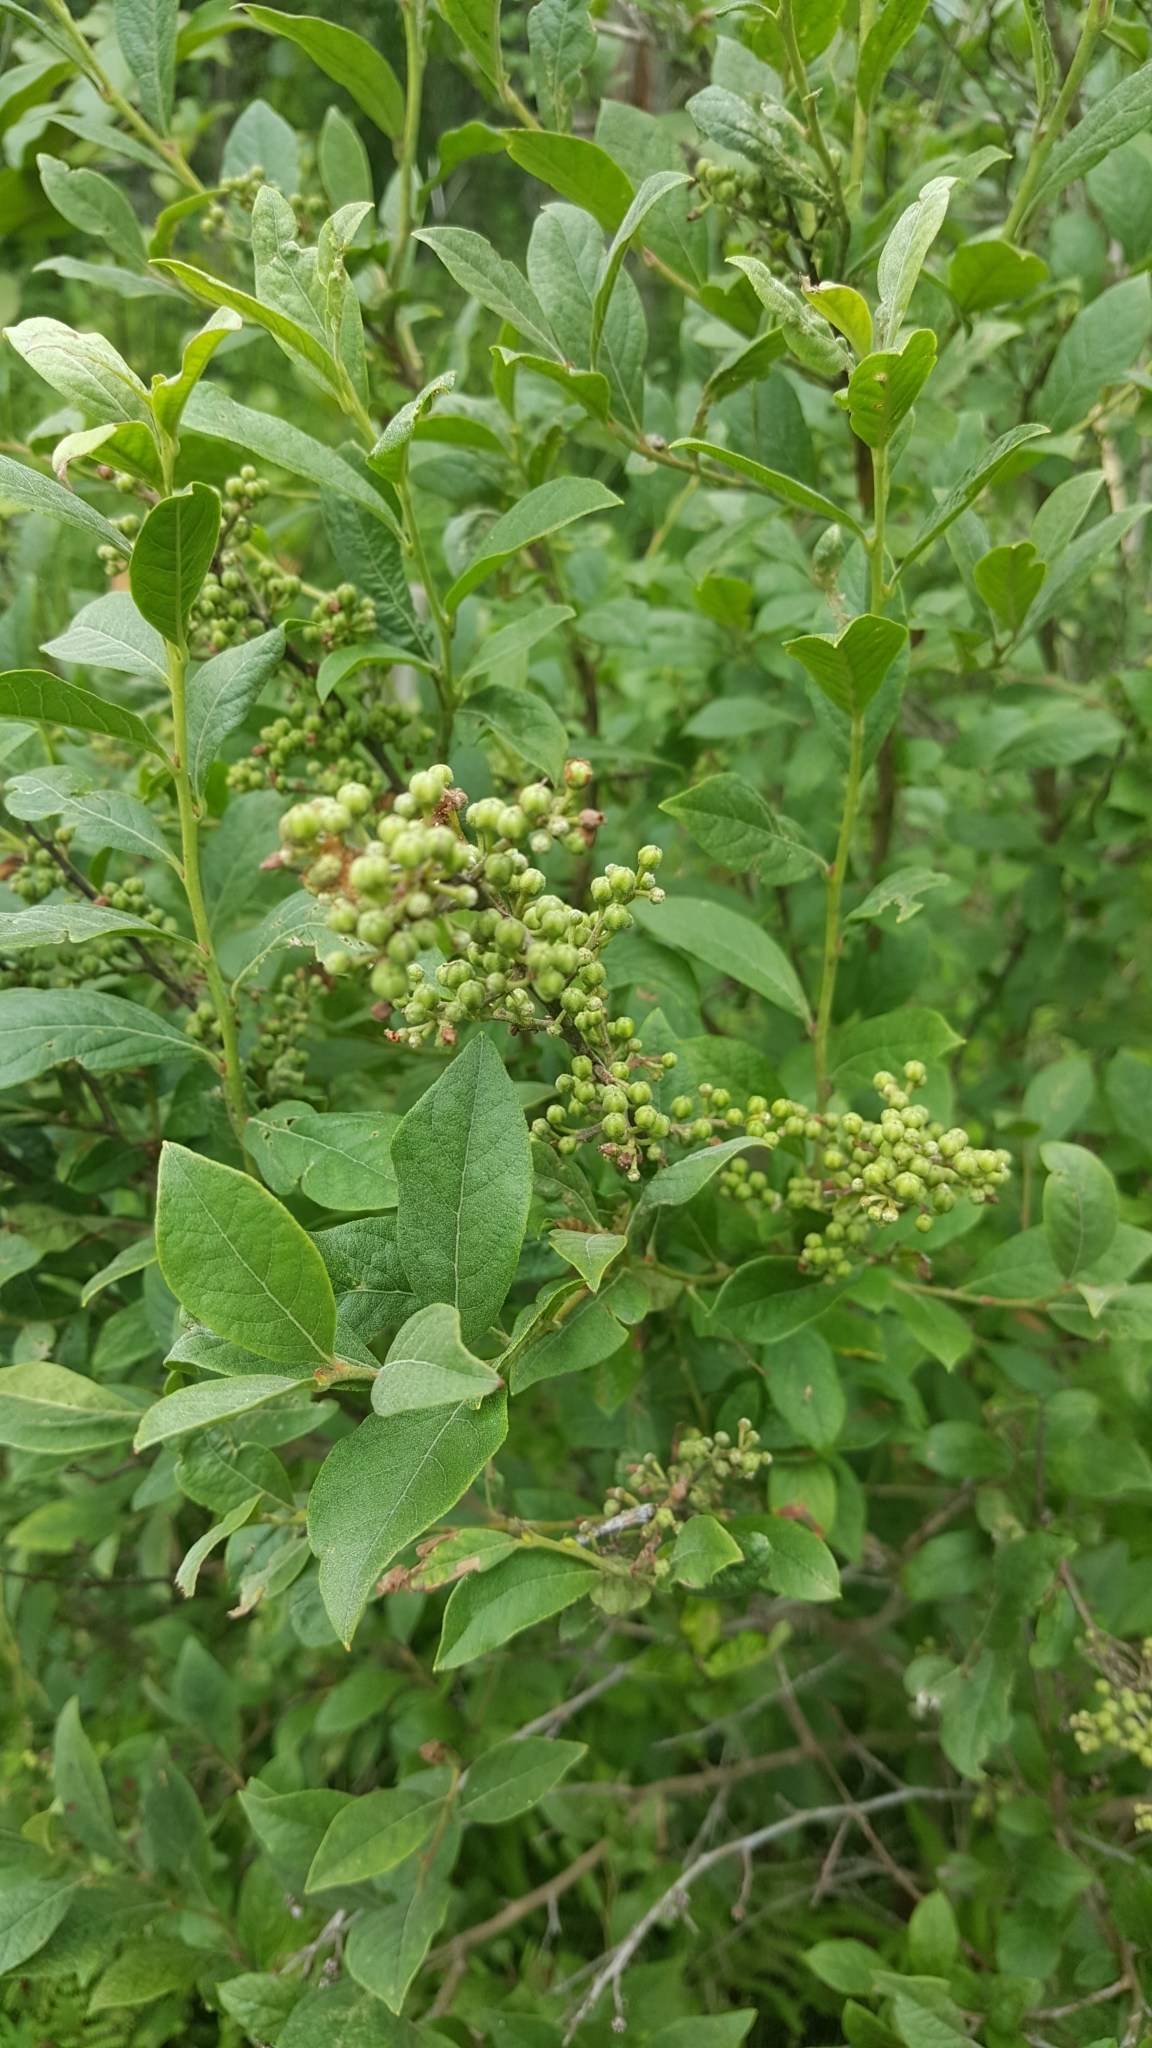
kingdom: Plantae
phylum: Tracheophyta
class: Magnoliopsida
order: Ericales
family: Ericaceae
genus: Lyonia
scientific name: Lyonia ligustrina
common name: Maleberry
